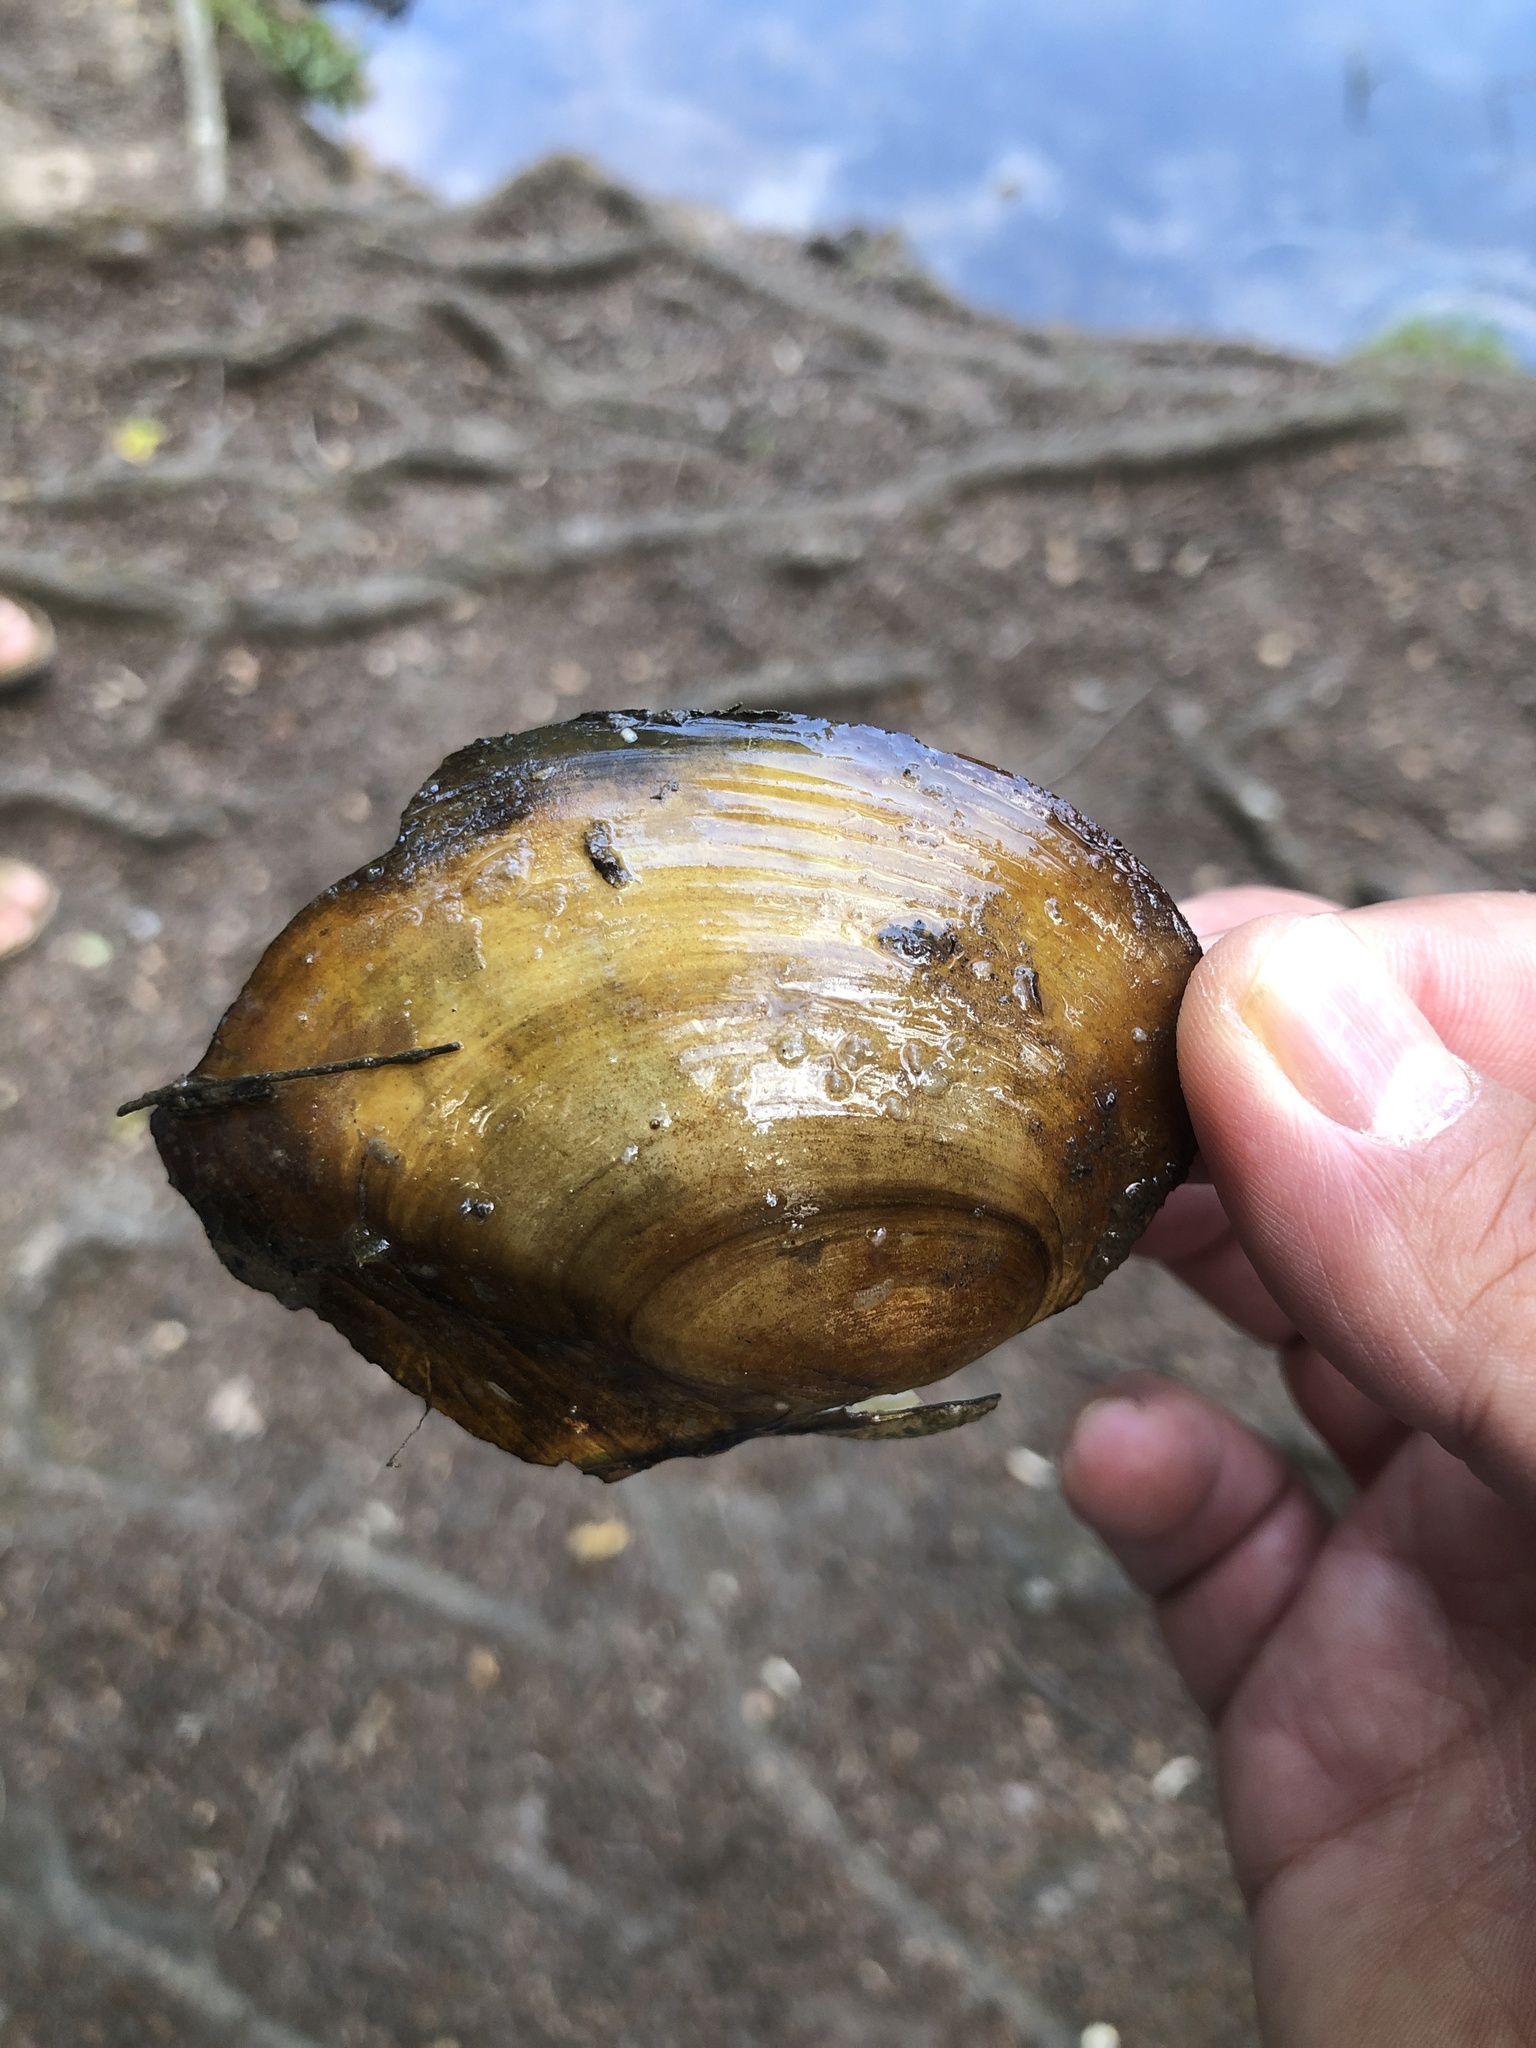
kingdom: Animalia
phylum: Mollusca
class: Bivalvia
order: Unionida
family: Unionidae
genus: Anodonta
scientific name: Anodonta anatina
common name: Duck mussel
